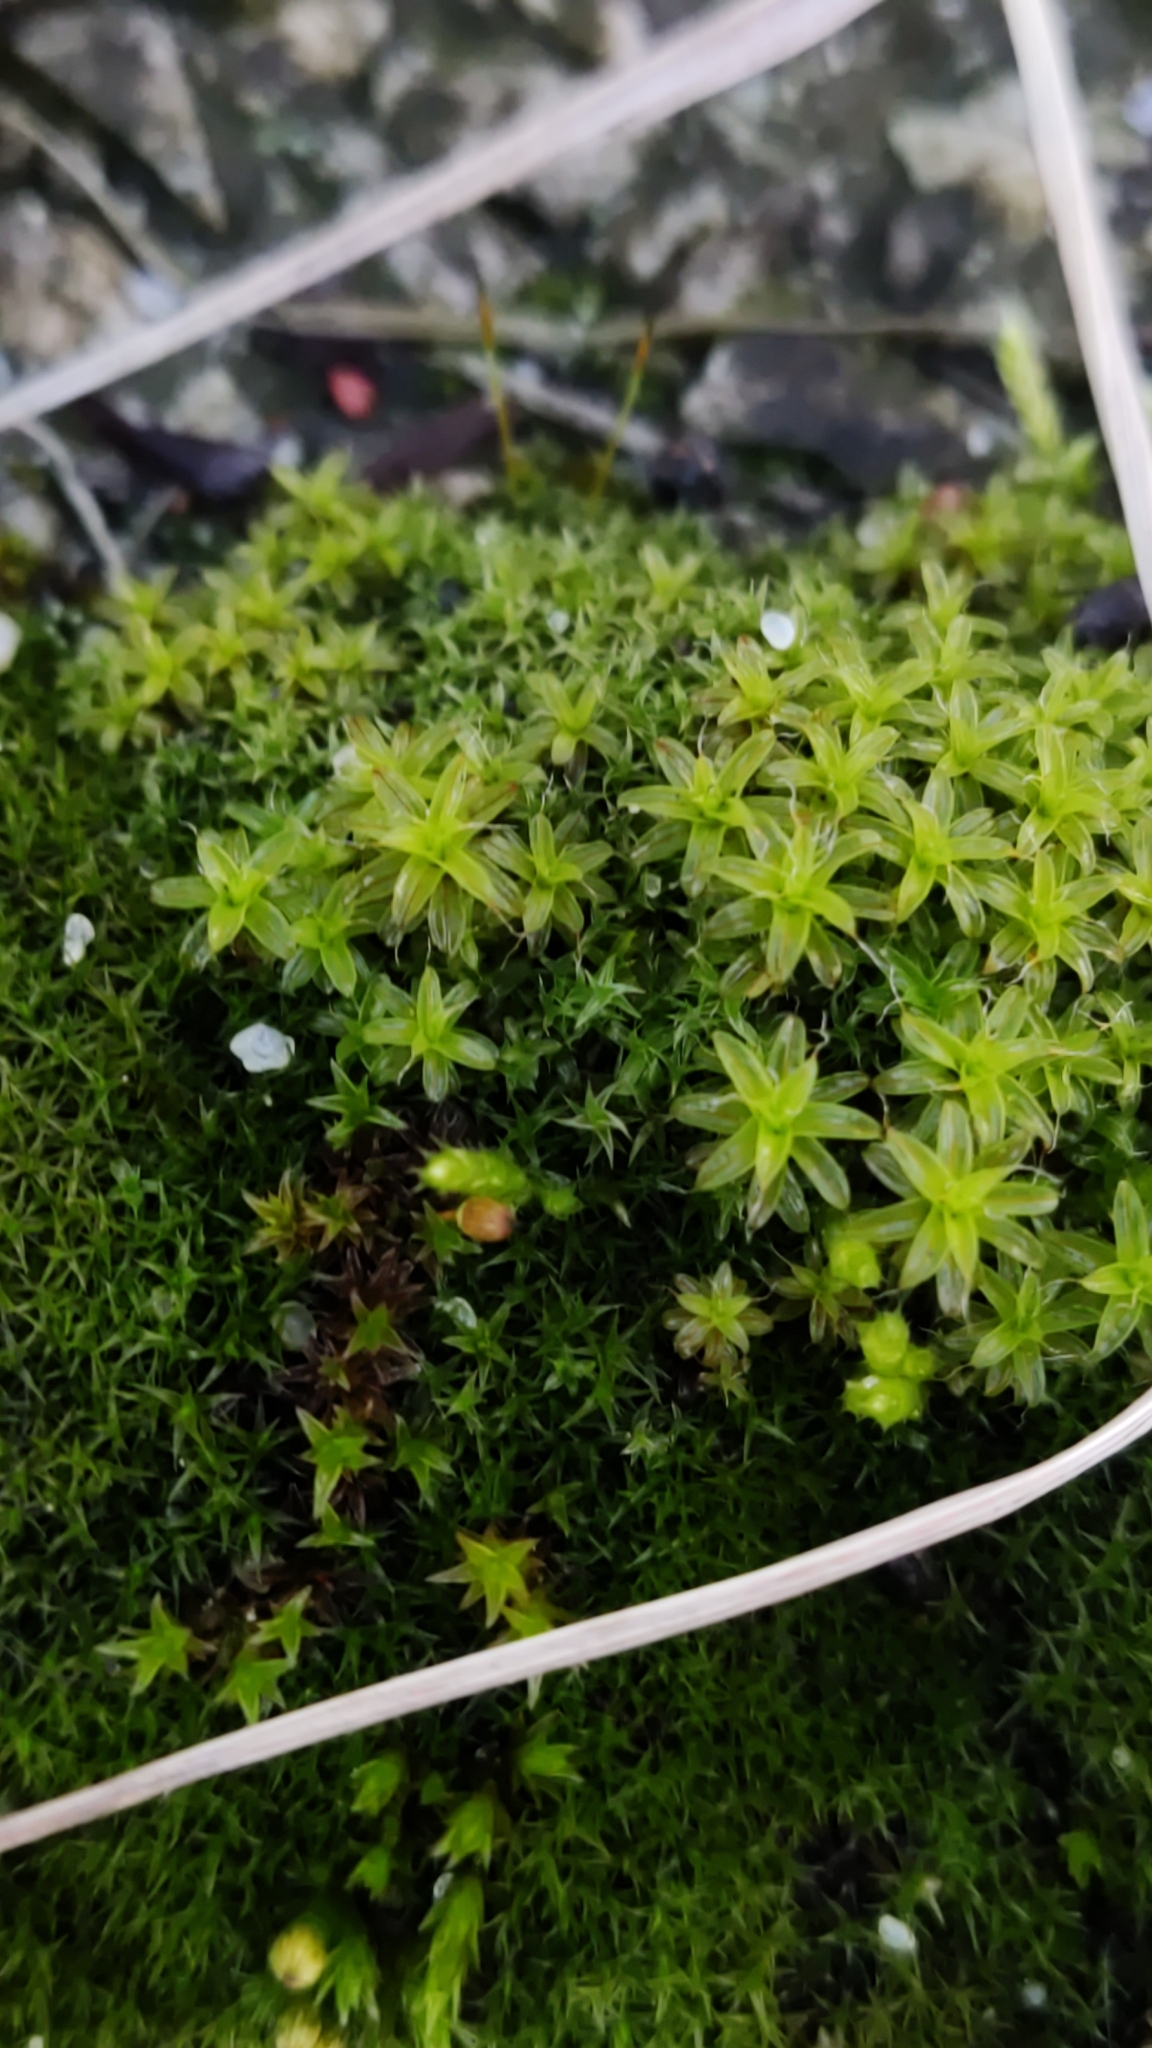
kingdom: Plantae
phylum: Bryophyta
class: Bryopsida
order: Pottiales
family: Pottiaceae
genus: Syntrichia
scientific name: Syntrichia ruralis
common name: Sidewalk screw moss
